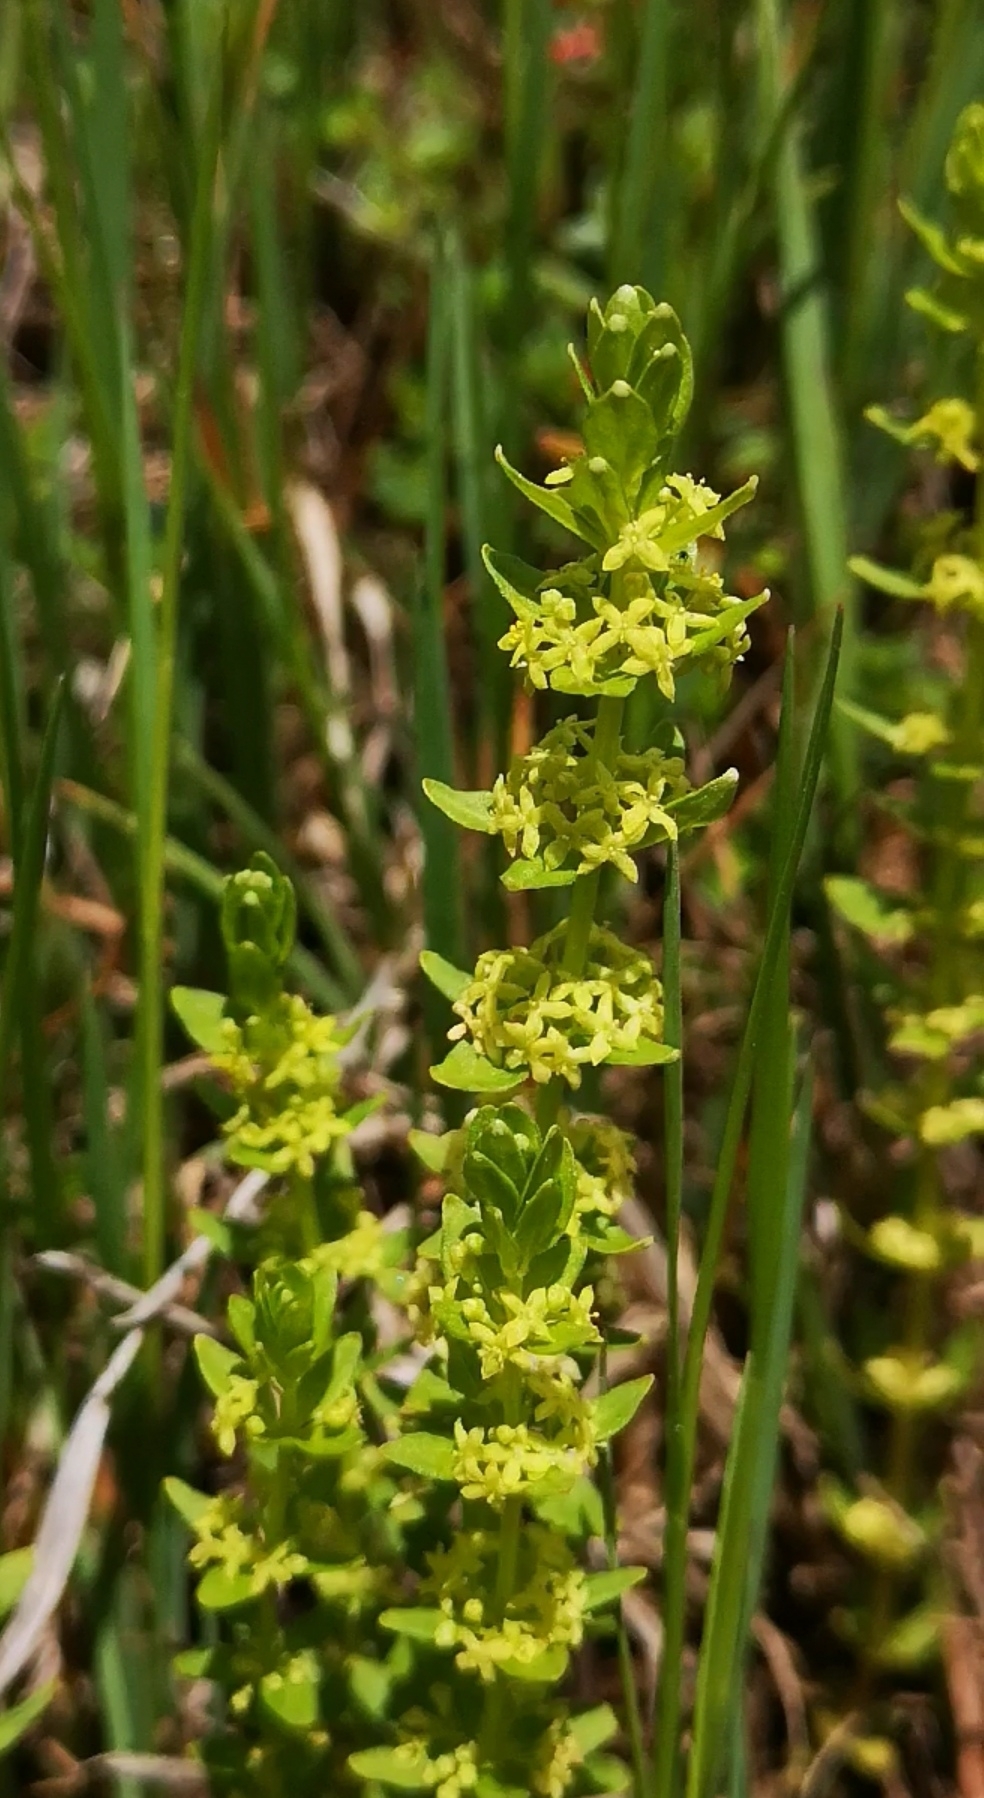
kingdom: Plantae
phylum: Tracheophyta
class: Magnoliopsida
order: Gentianales
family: Rubiaceae
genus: Cruciata
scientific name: Cruciata glabra
